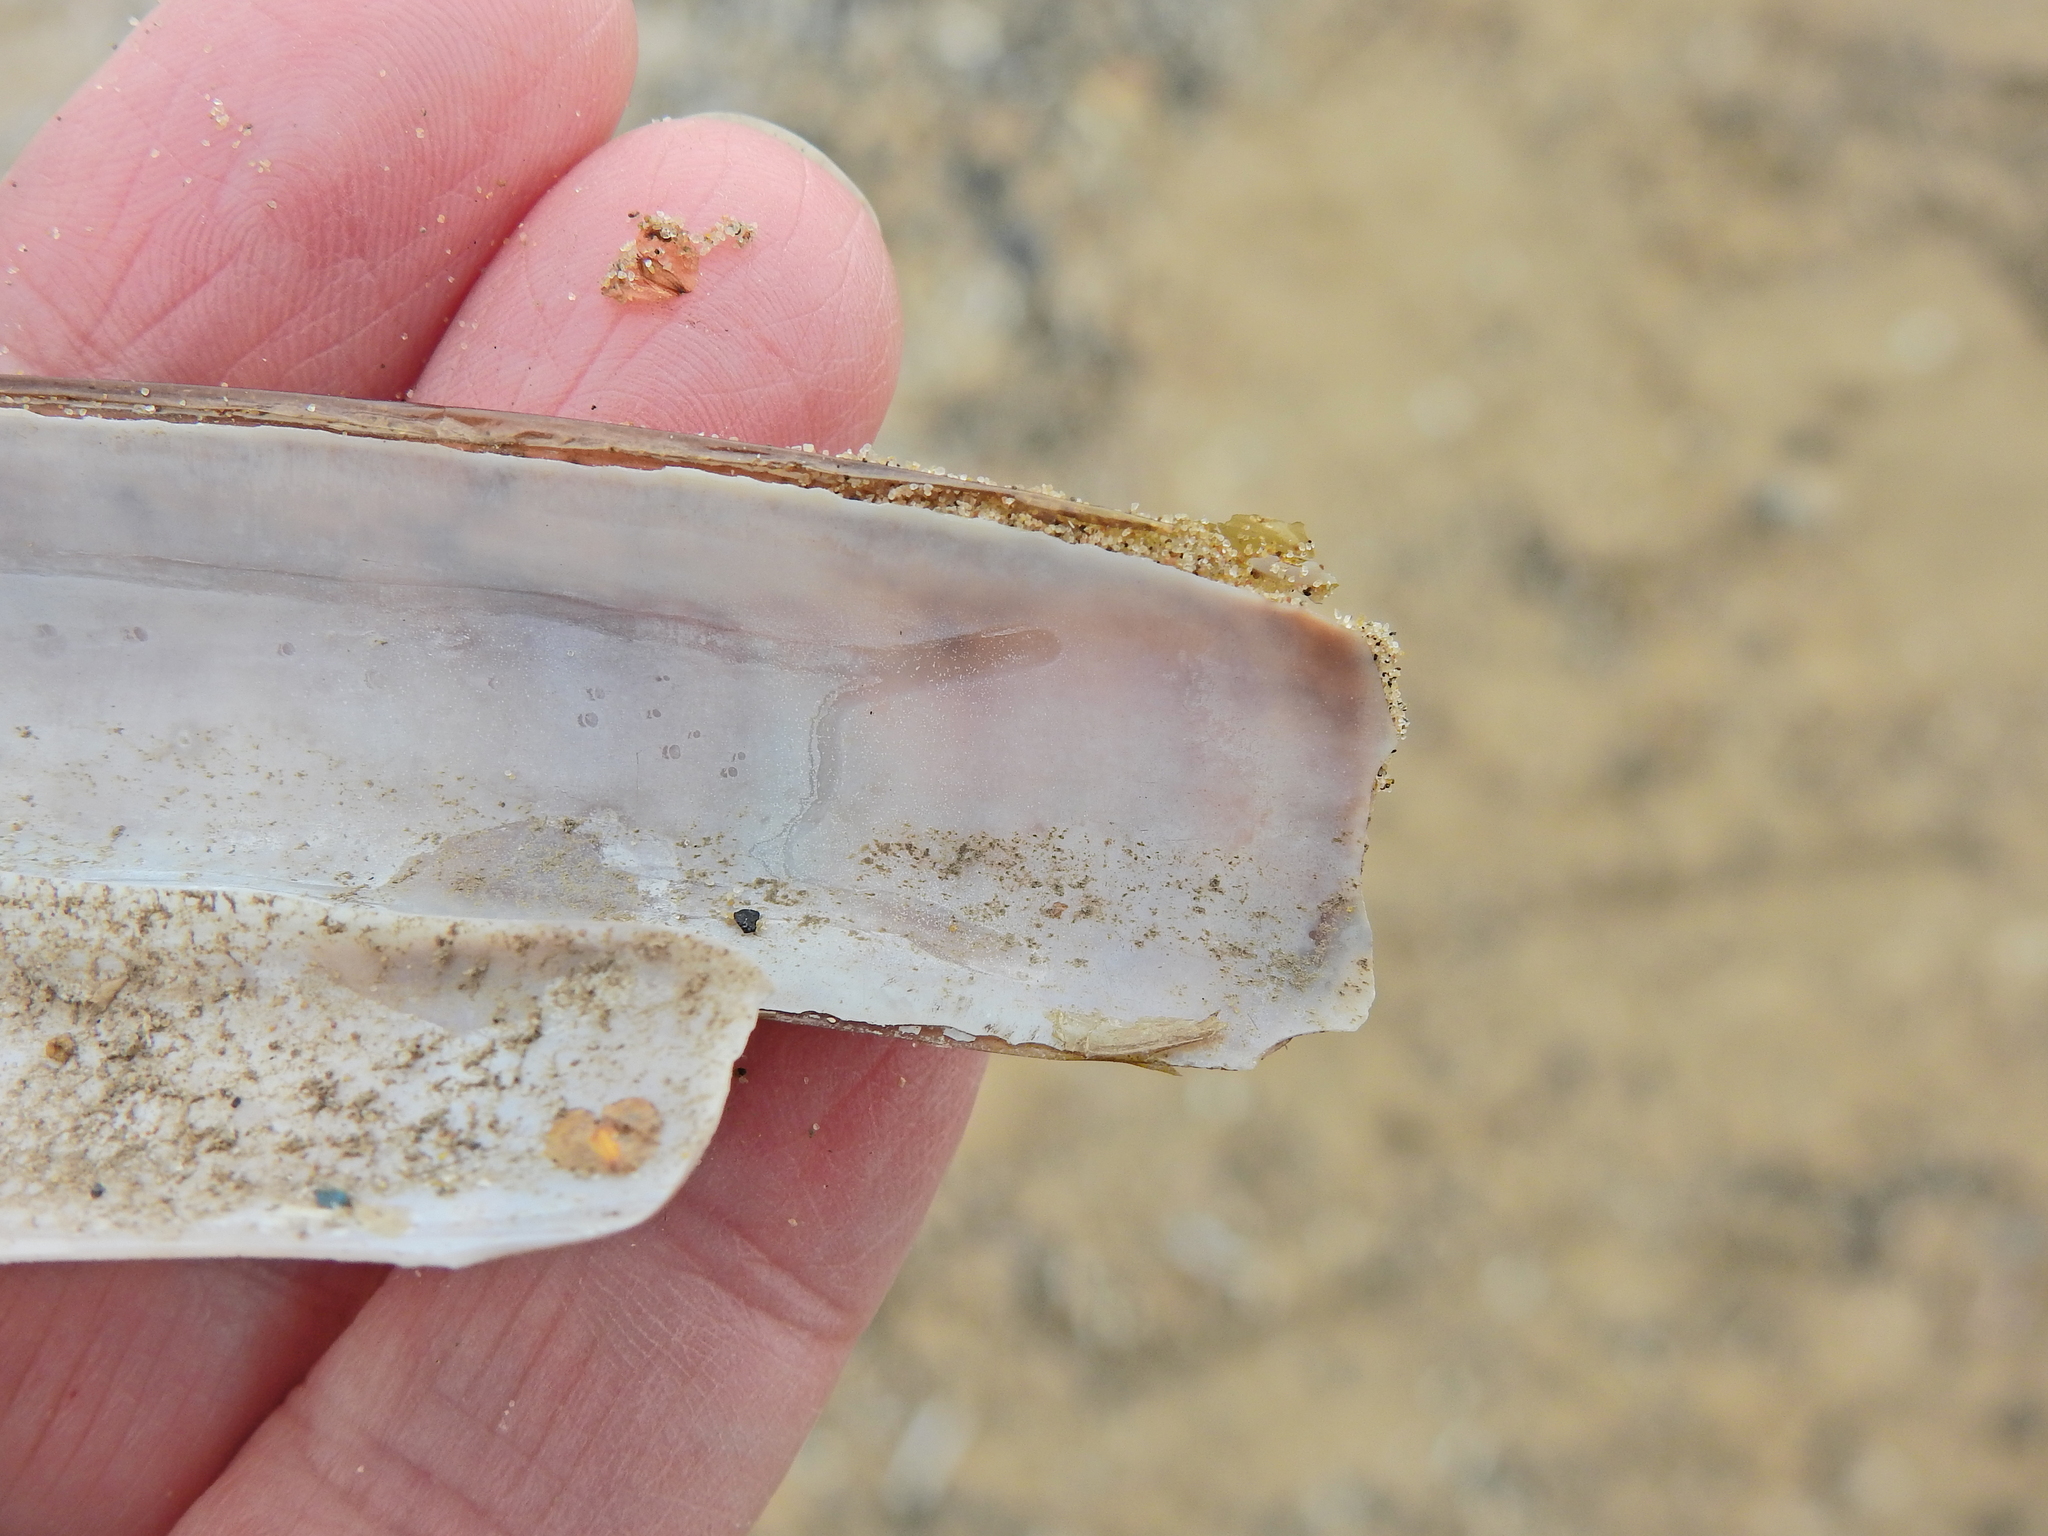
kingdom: Animalia
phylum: Mollusca
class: Bivalvia
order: Adapedonta
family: Pharidae
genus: Ensis
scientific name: Ensis leei
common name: American jack knife clam
